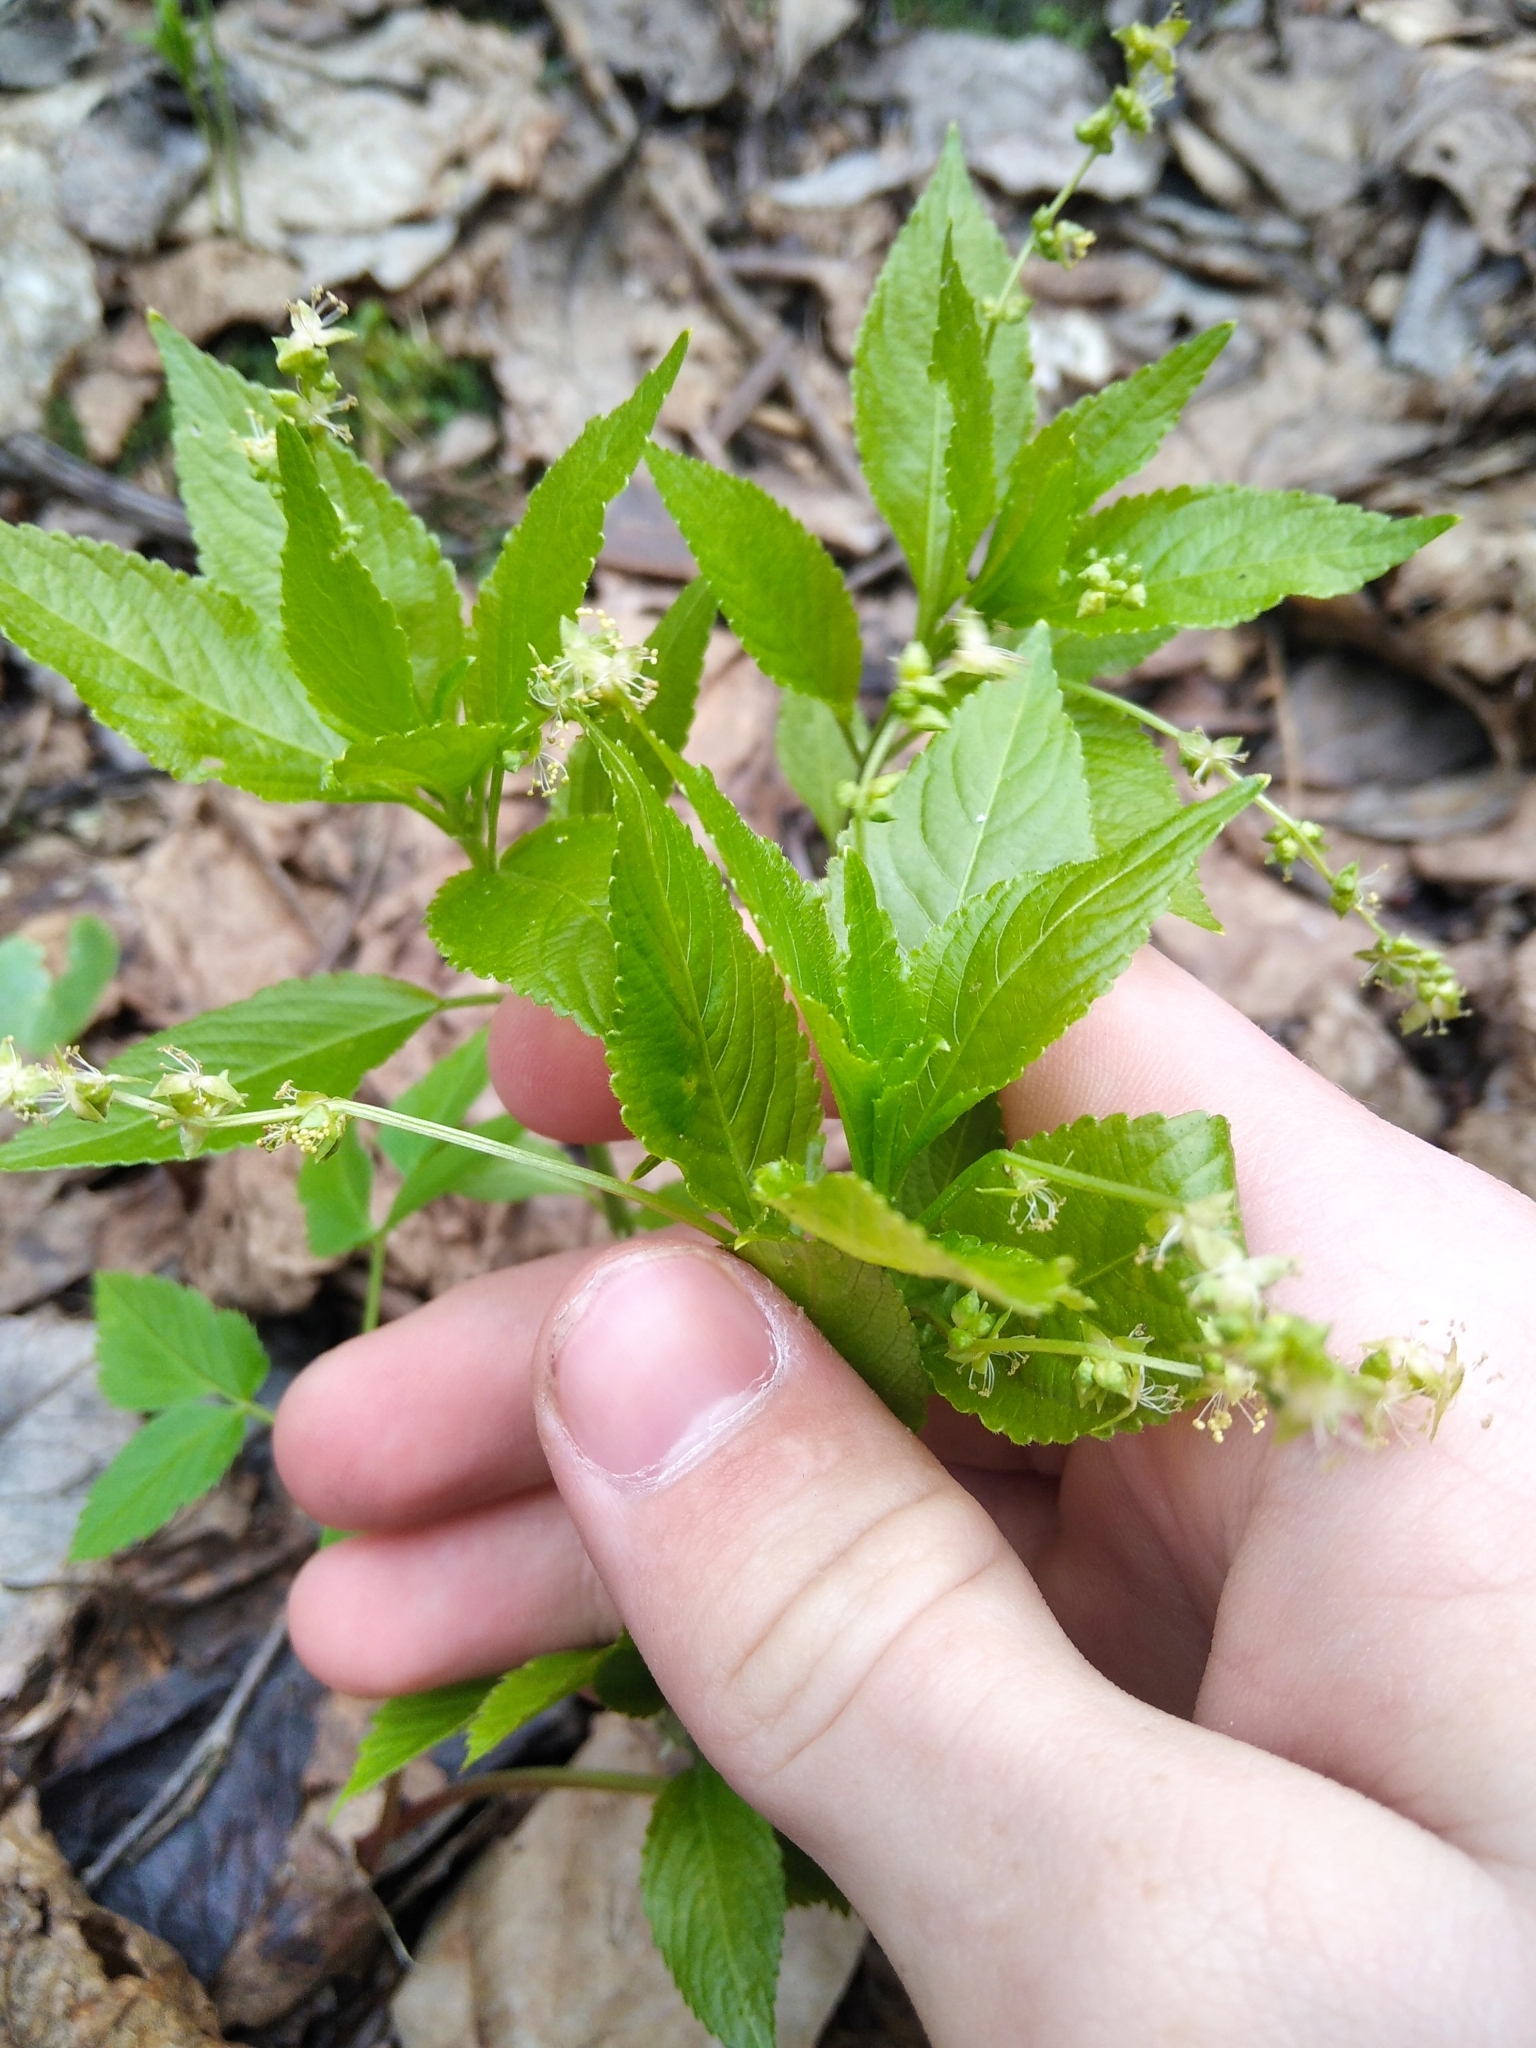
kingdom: Plantae
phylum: Tracheophyta
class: Magnoliopsida
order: Malpighiales
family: Euphorbiaceae
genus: Mercurialis
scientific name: Mercurialis perennis
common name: Dog mercury
